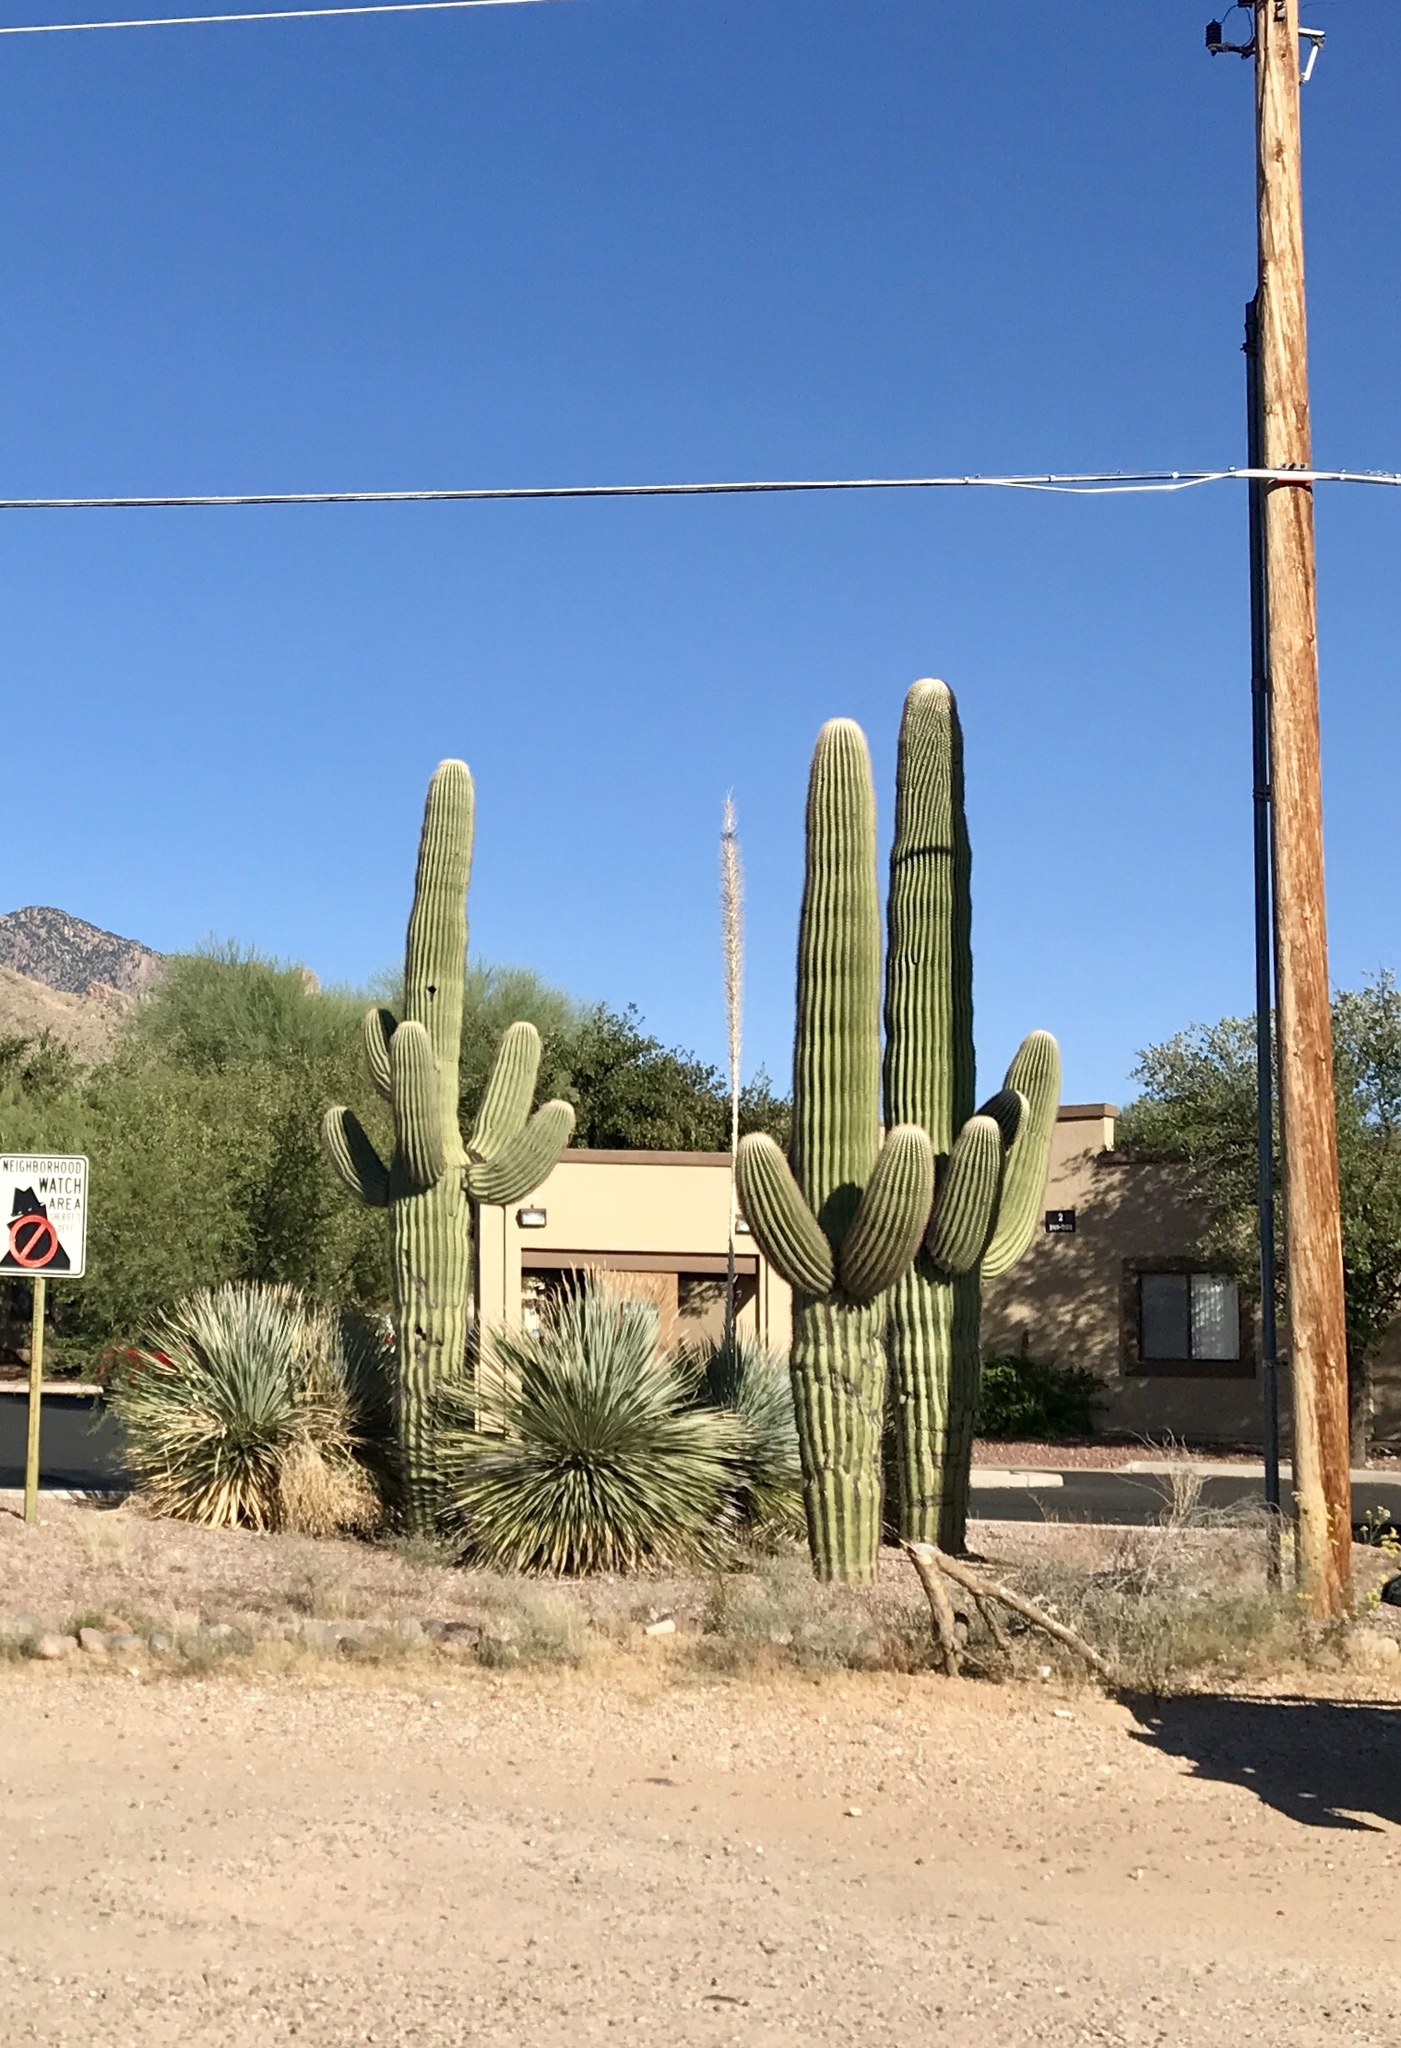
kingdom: Plantae
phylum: Tracheophyta
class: Magnoliopsida
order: Caryophyllales
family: Cactaceae
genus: Carnegiea
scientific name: Carnegiea gigantea
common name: Saguaro
